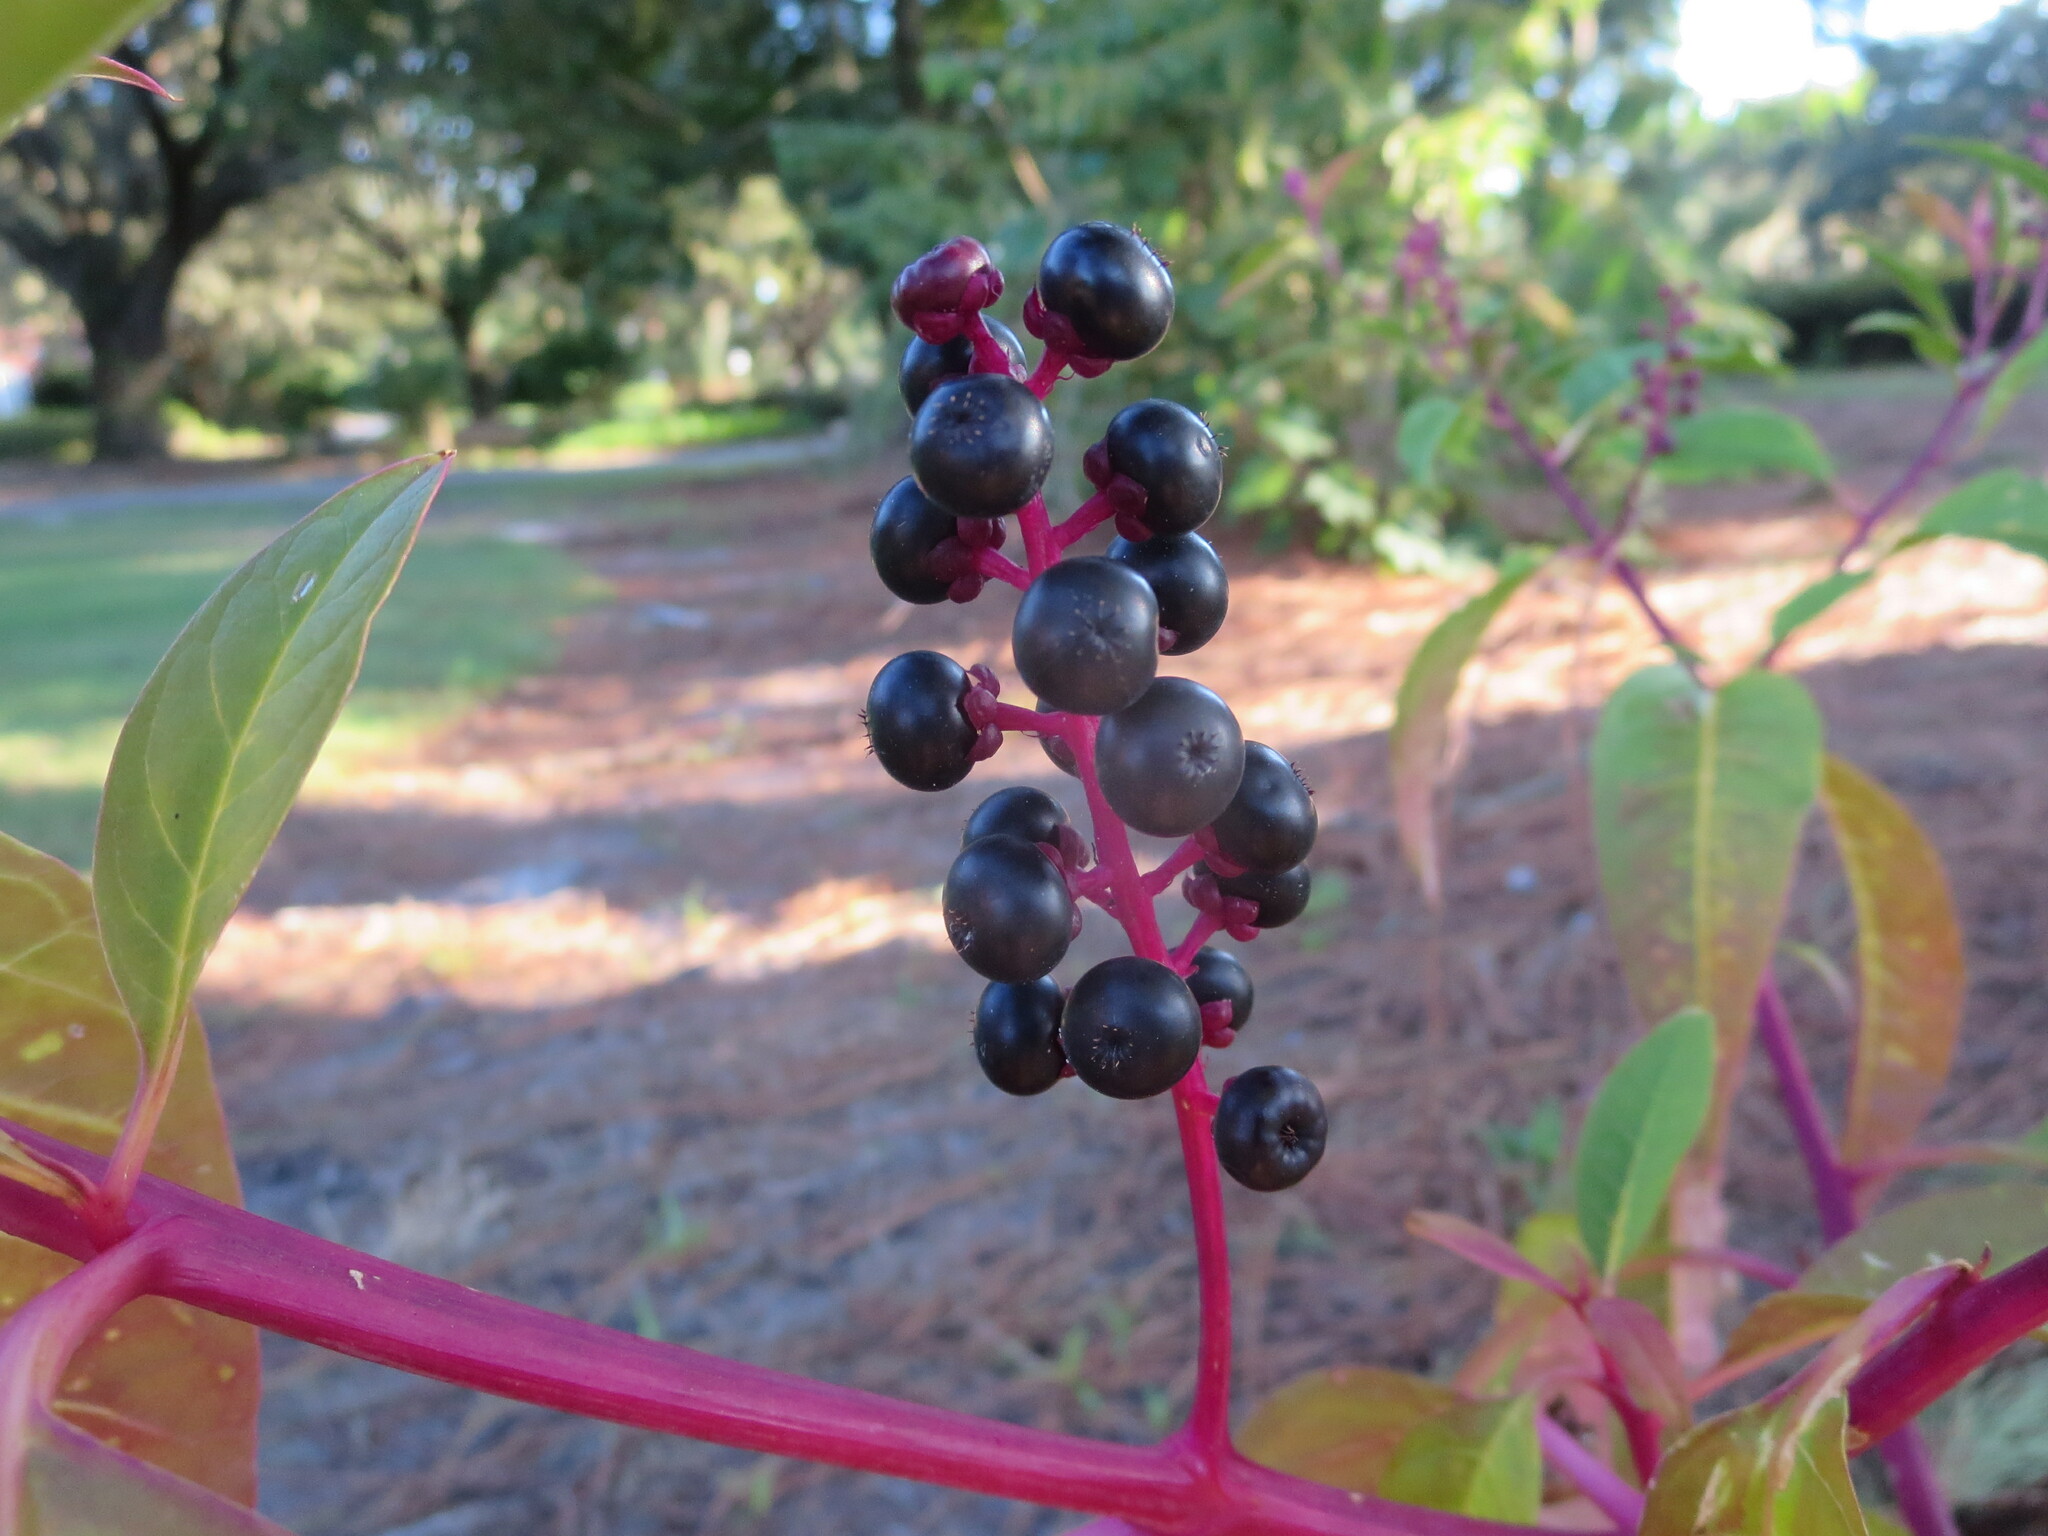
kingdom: Plantae
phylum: Tracheophyta
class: Magnoliopsida
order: Caryophyllales
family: Phytolaccaceae
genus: Phytolacca
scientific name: Phytolacca americana
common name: American pokeweed
